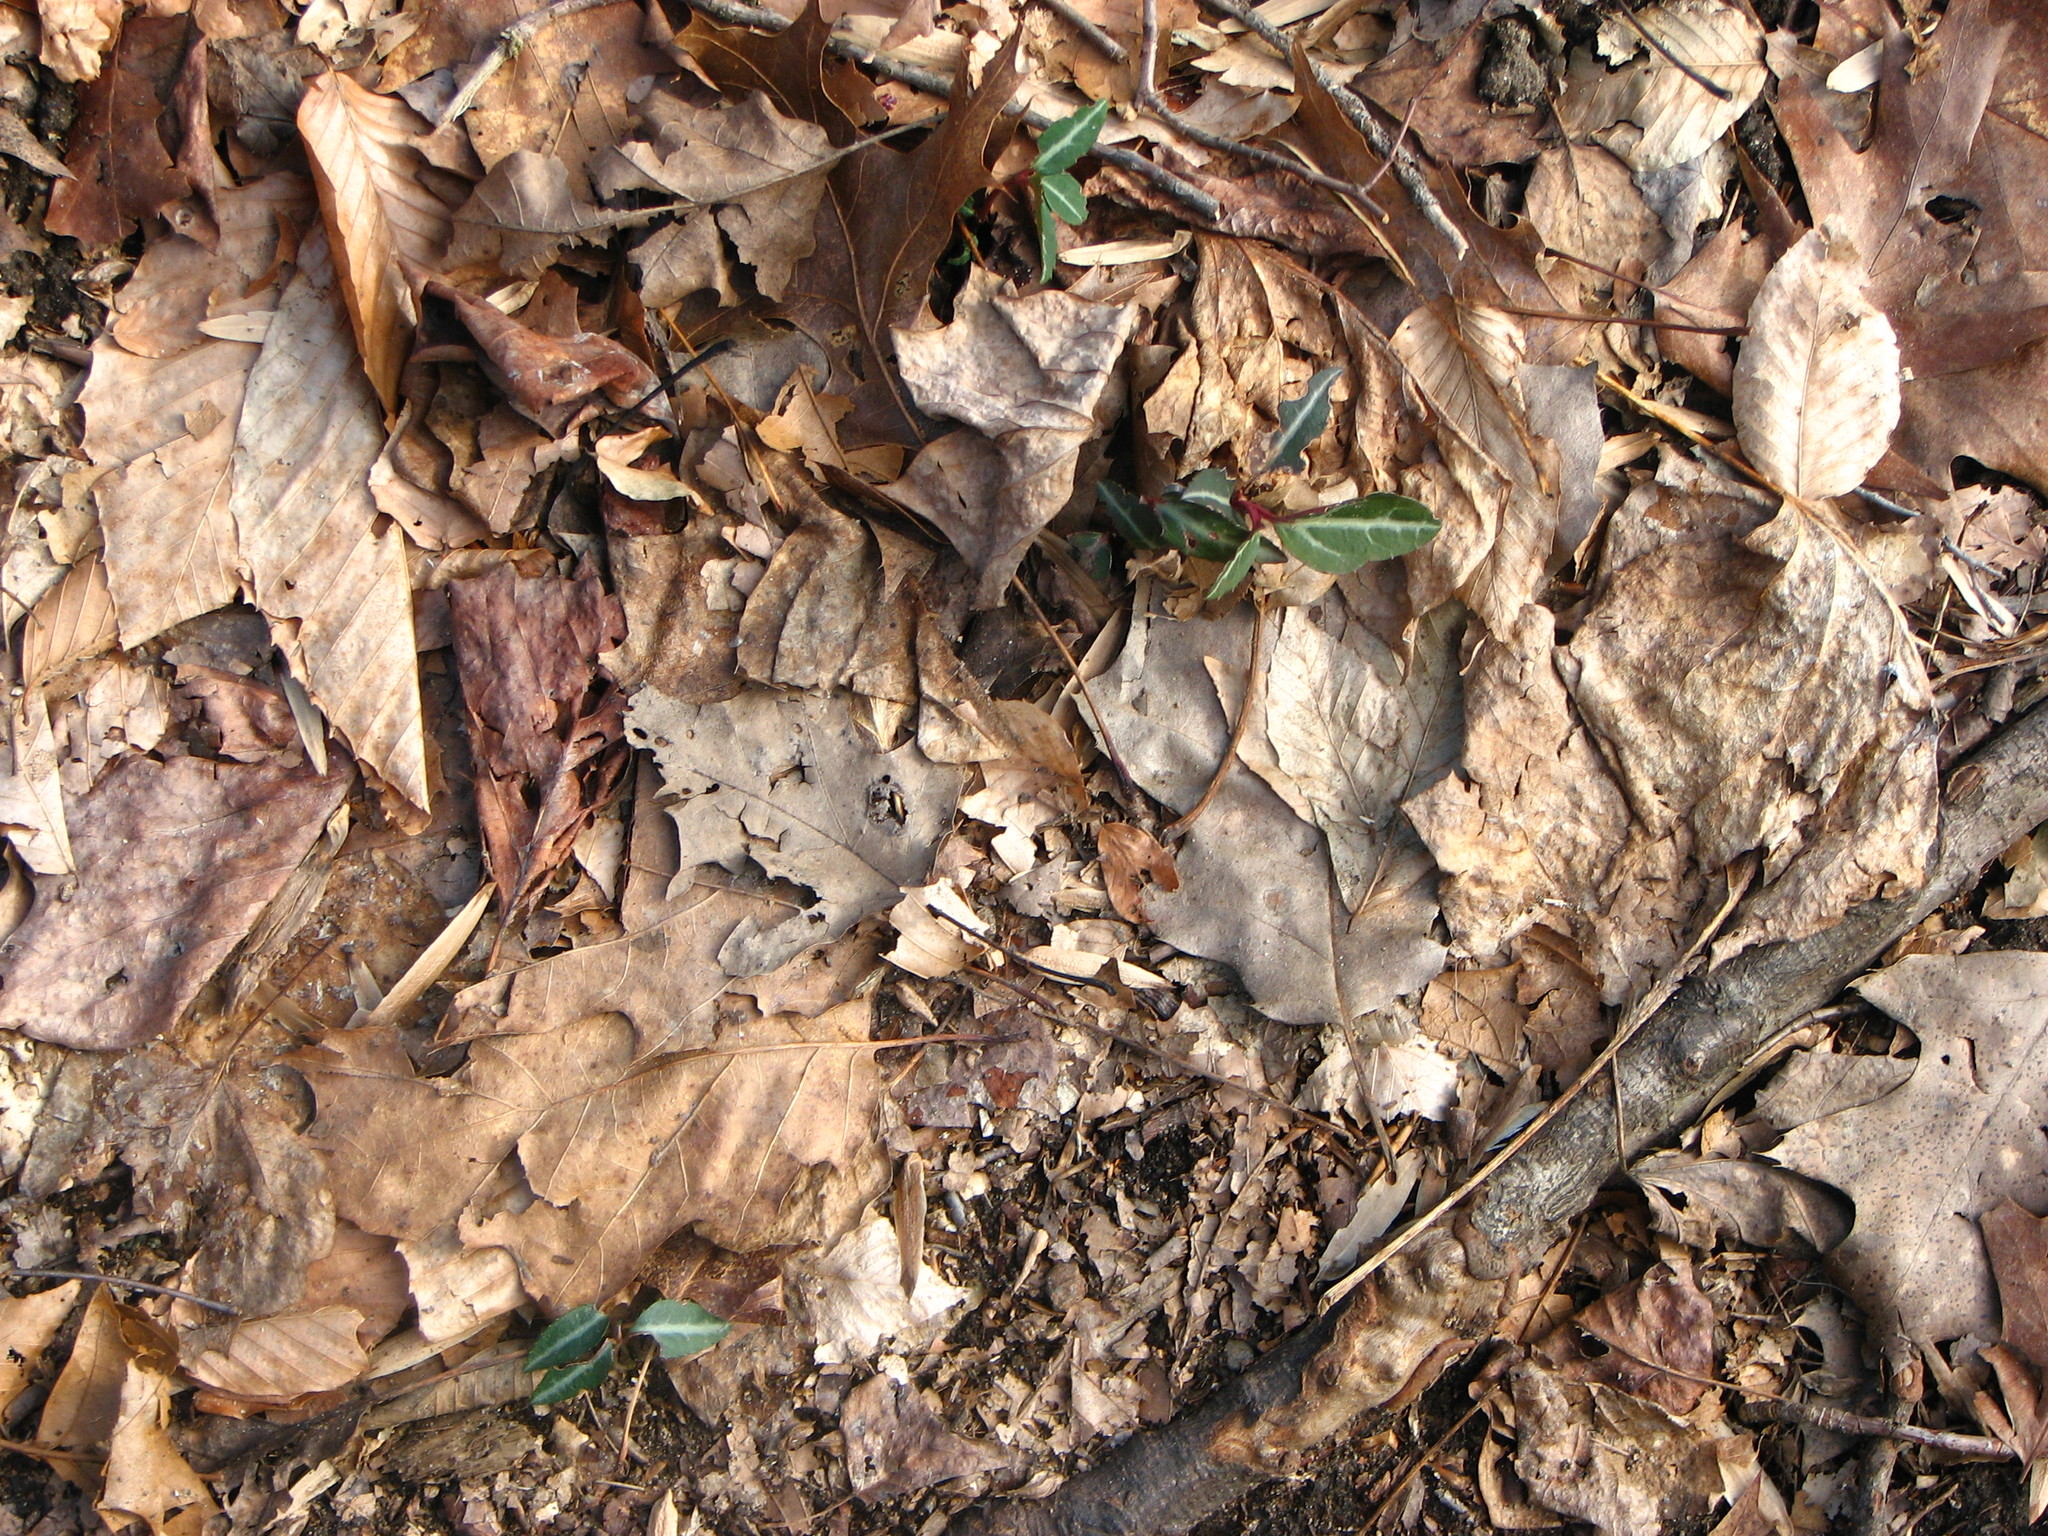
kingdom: Plantae
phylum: Tracheophyta
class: Magnoliopsida
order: Ericales
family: Ericaceae
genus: Chimaphila
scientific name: Chimaphila maculata
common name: Spotted pipsissewa
